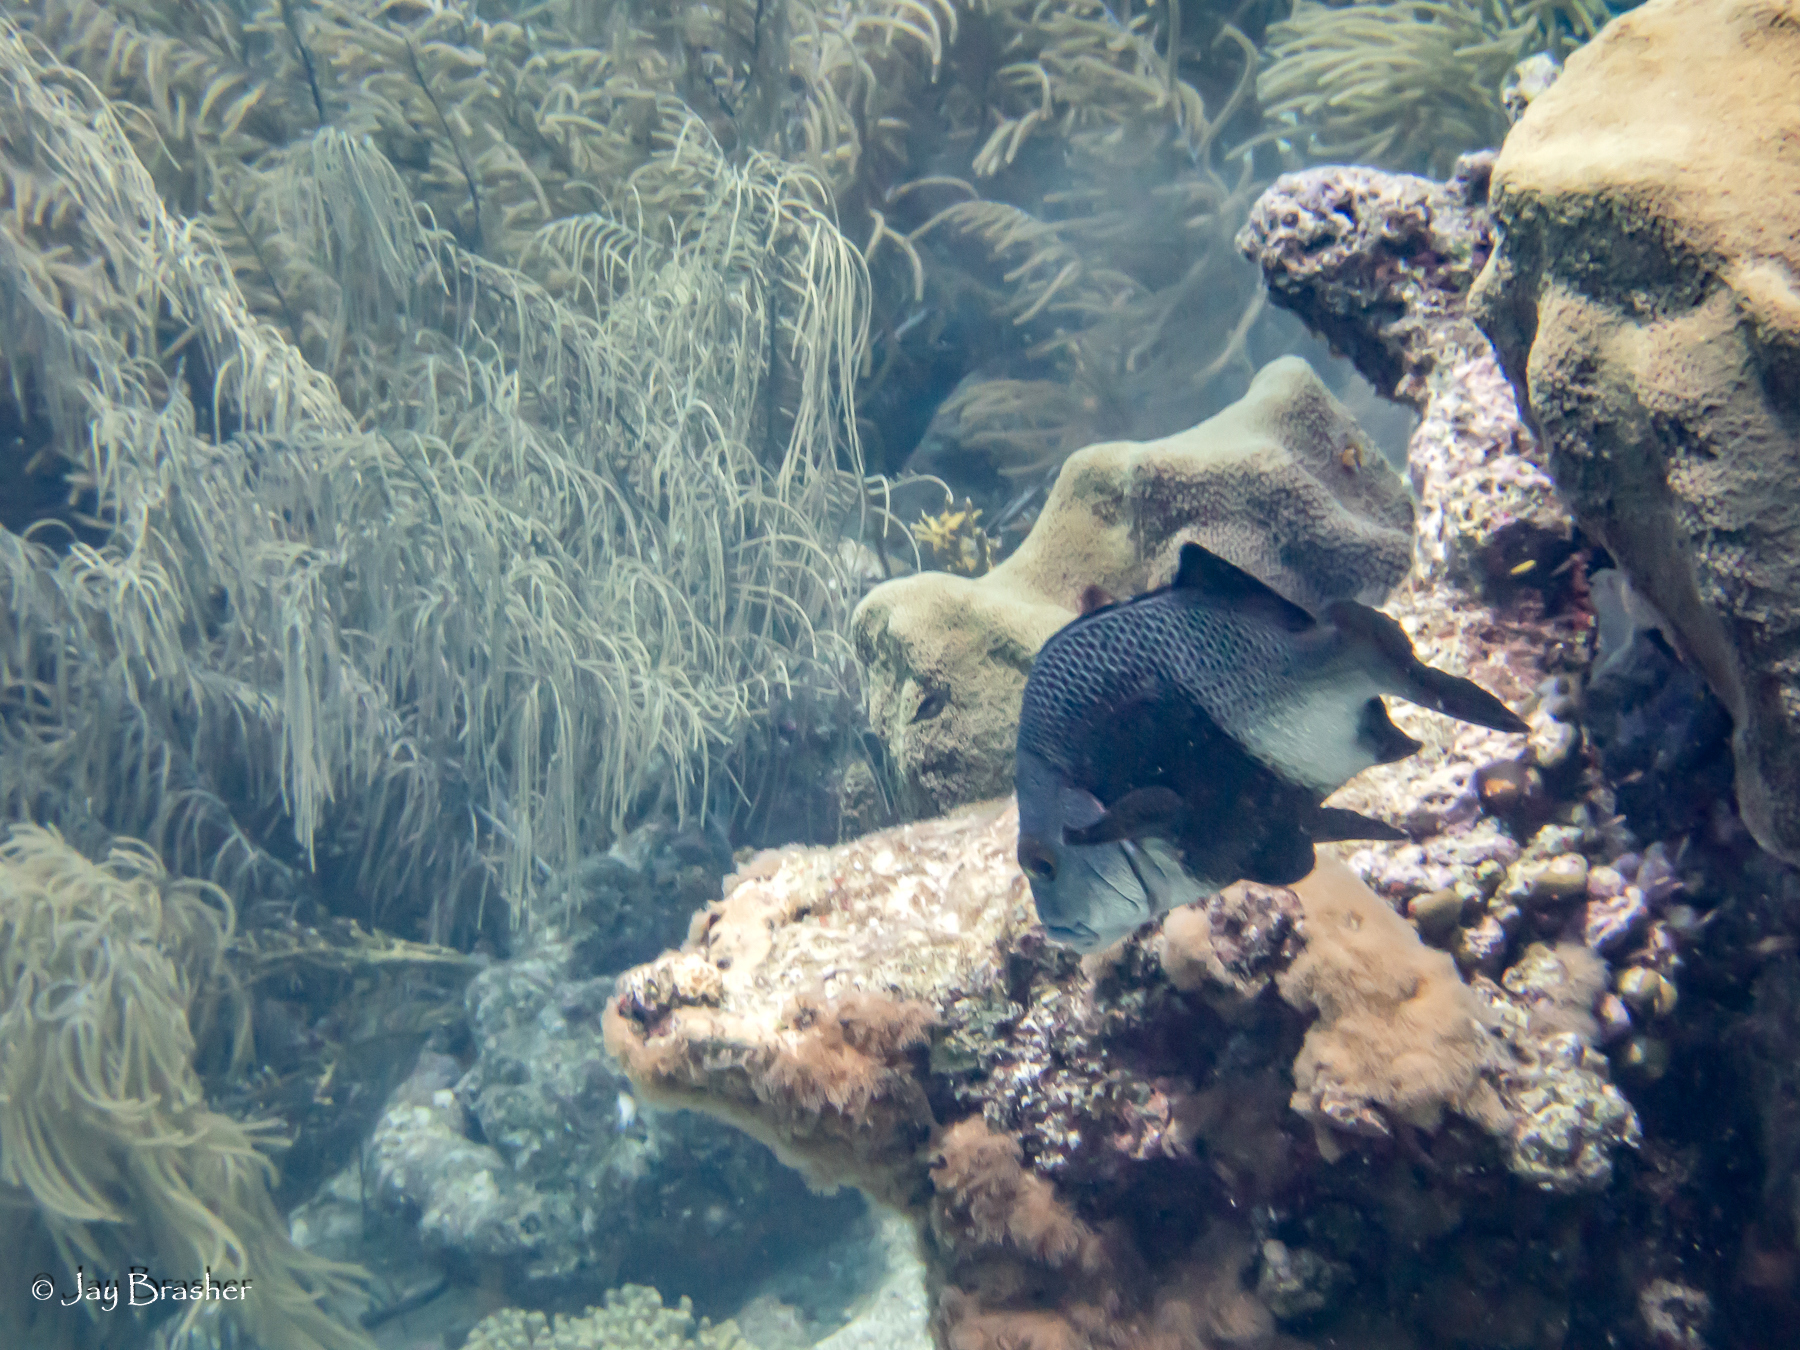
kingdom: Animalia
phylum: Chordata
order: Perciformes
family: Haemulidae
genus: Anisotremus
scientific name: Anisotremus surinamensis
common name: Black margate
